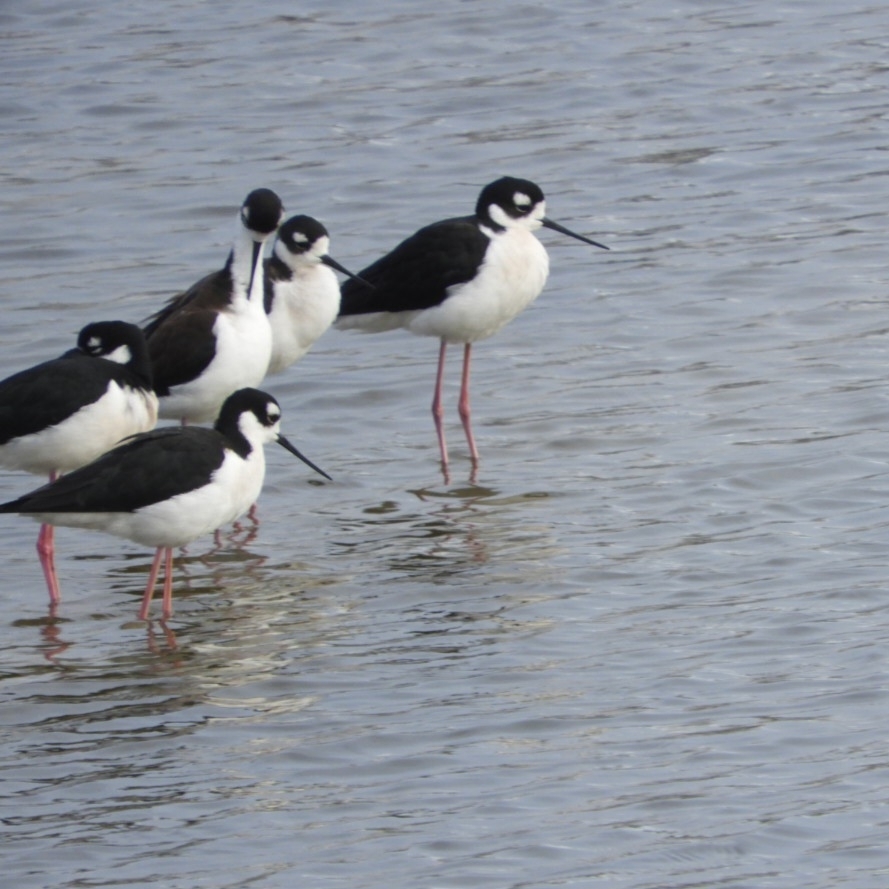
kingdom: Animalia
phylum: Chordata
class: Aves
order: Charadriiformes
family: Recurvirostridae
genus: Himantopus
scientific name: Himantopus mexicanus
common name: Black-necked stilt
